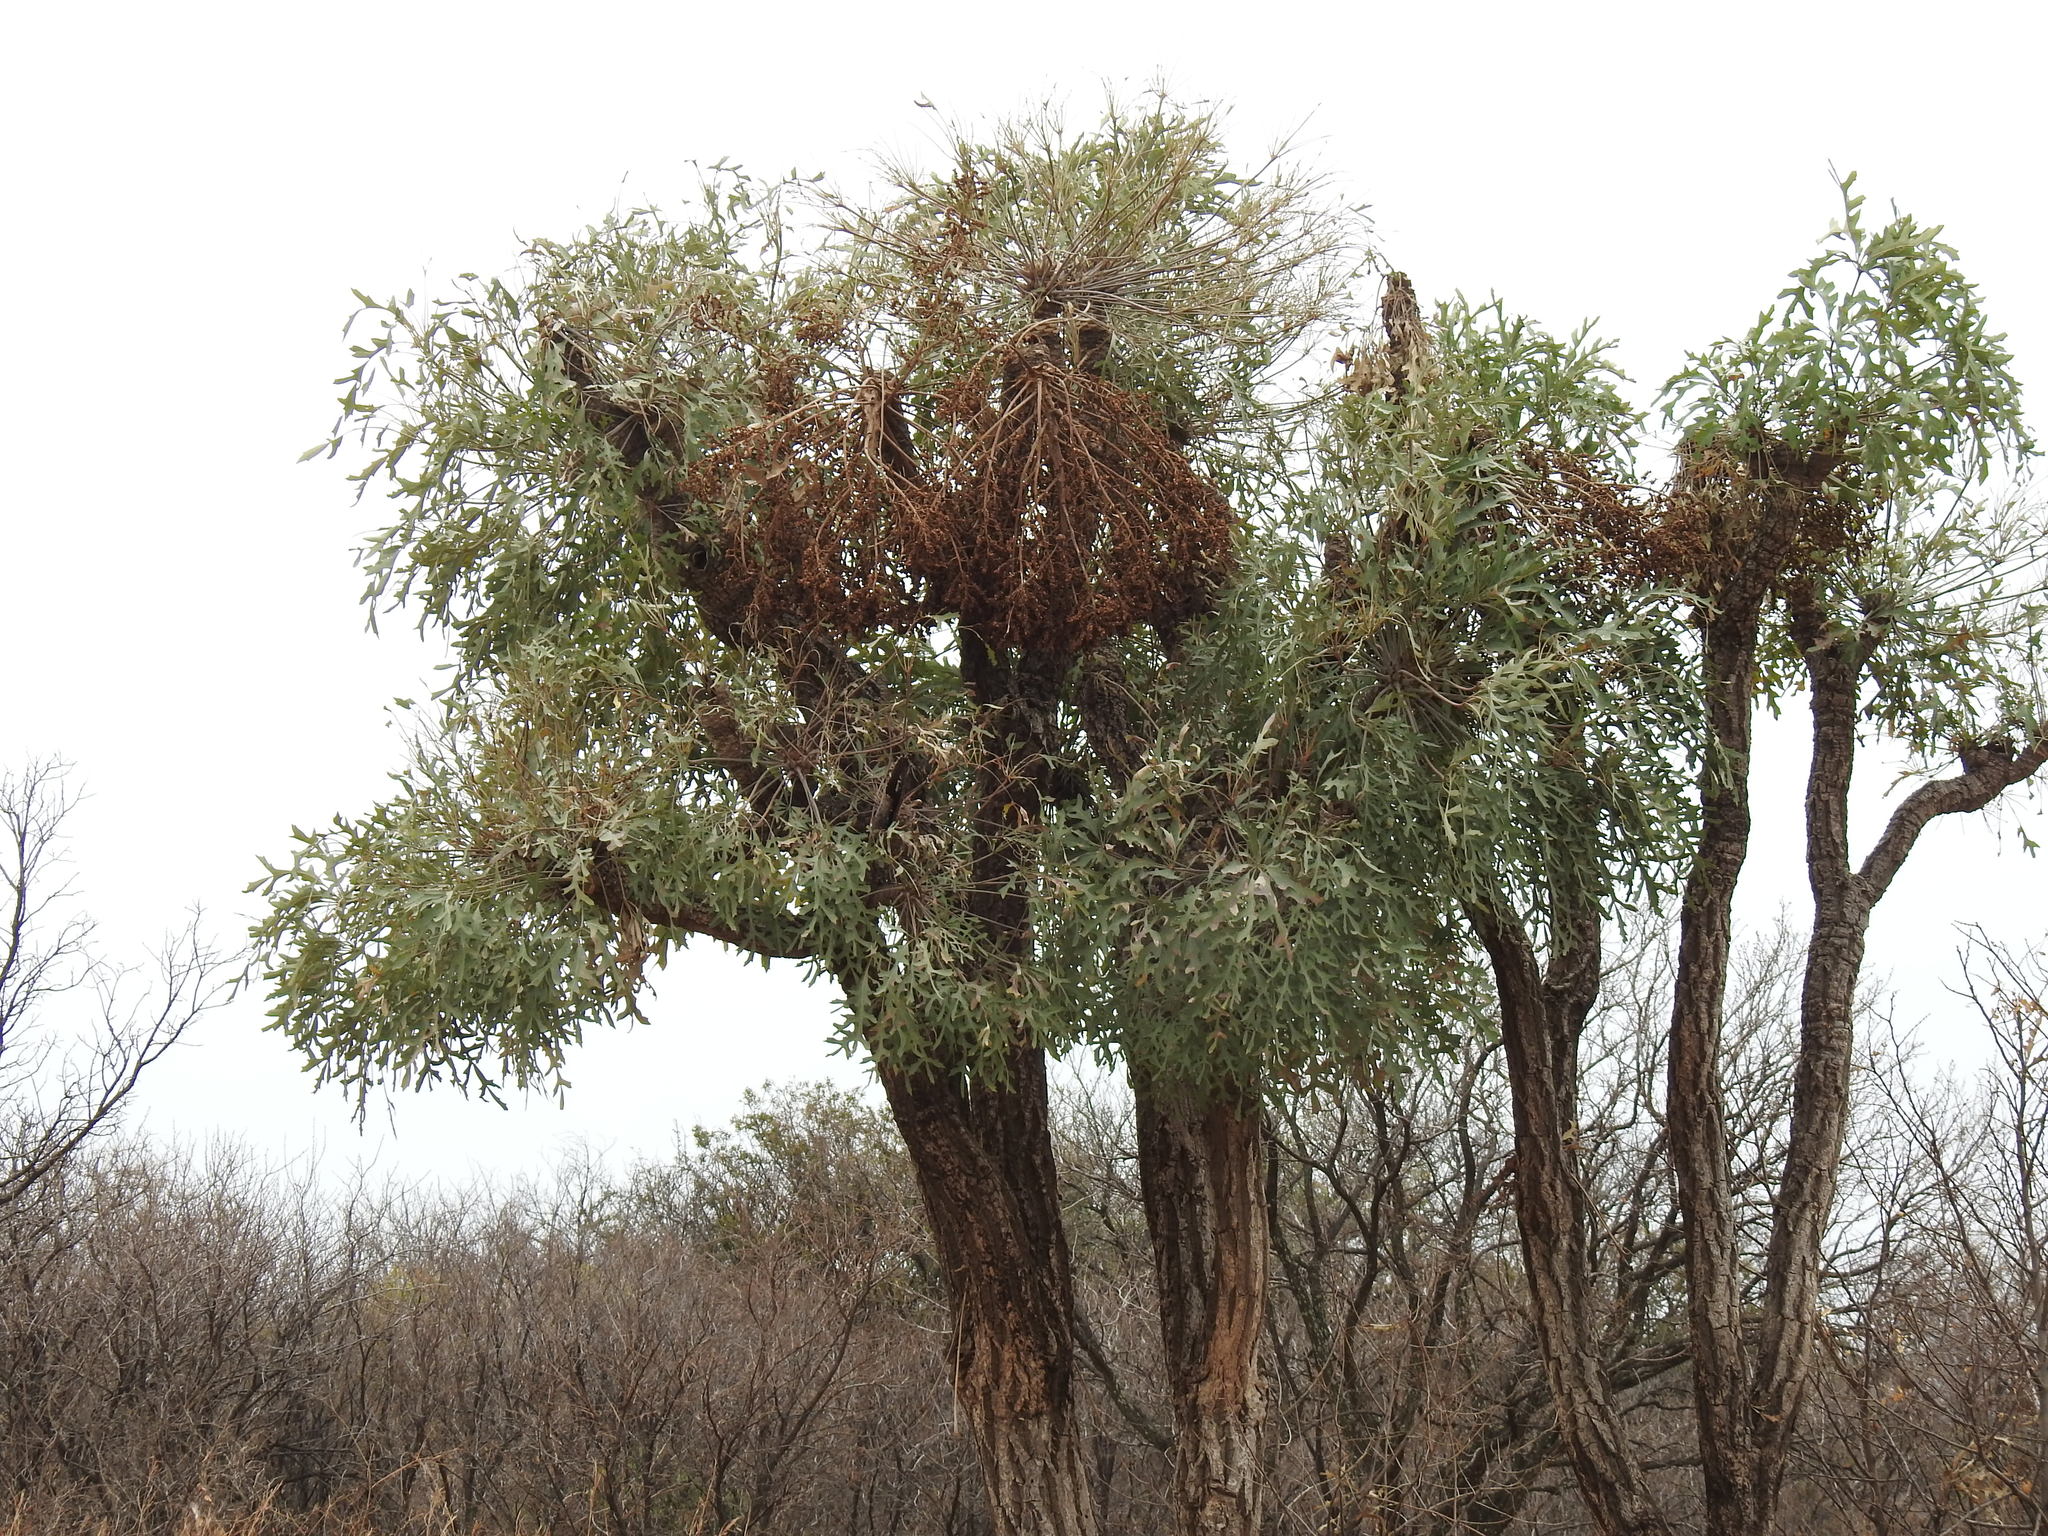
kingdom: Plantae
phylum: Tracheophyta
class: Magnoliopsida
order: Apiales
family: Araliaceae
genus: Cussonia
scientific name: Cussonia paniculata
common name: Cabbagetree
